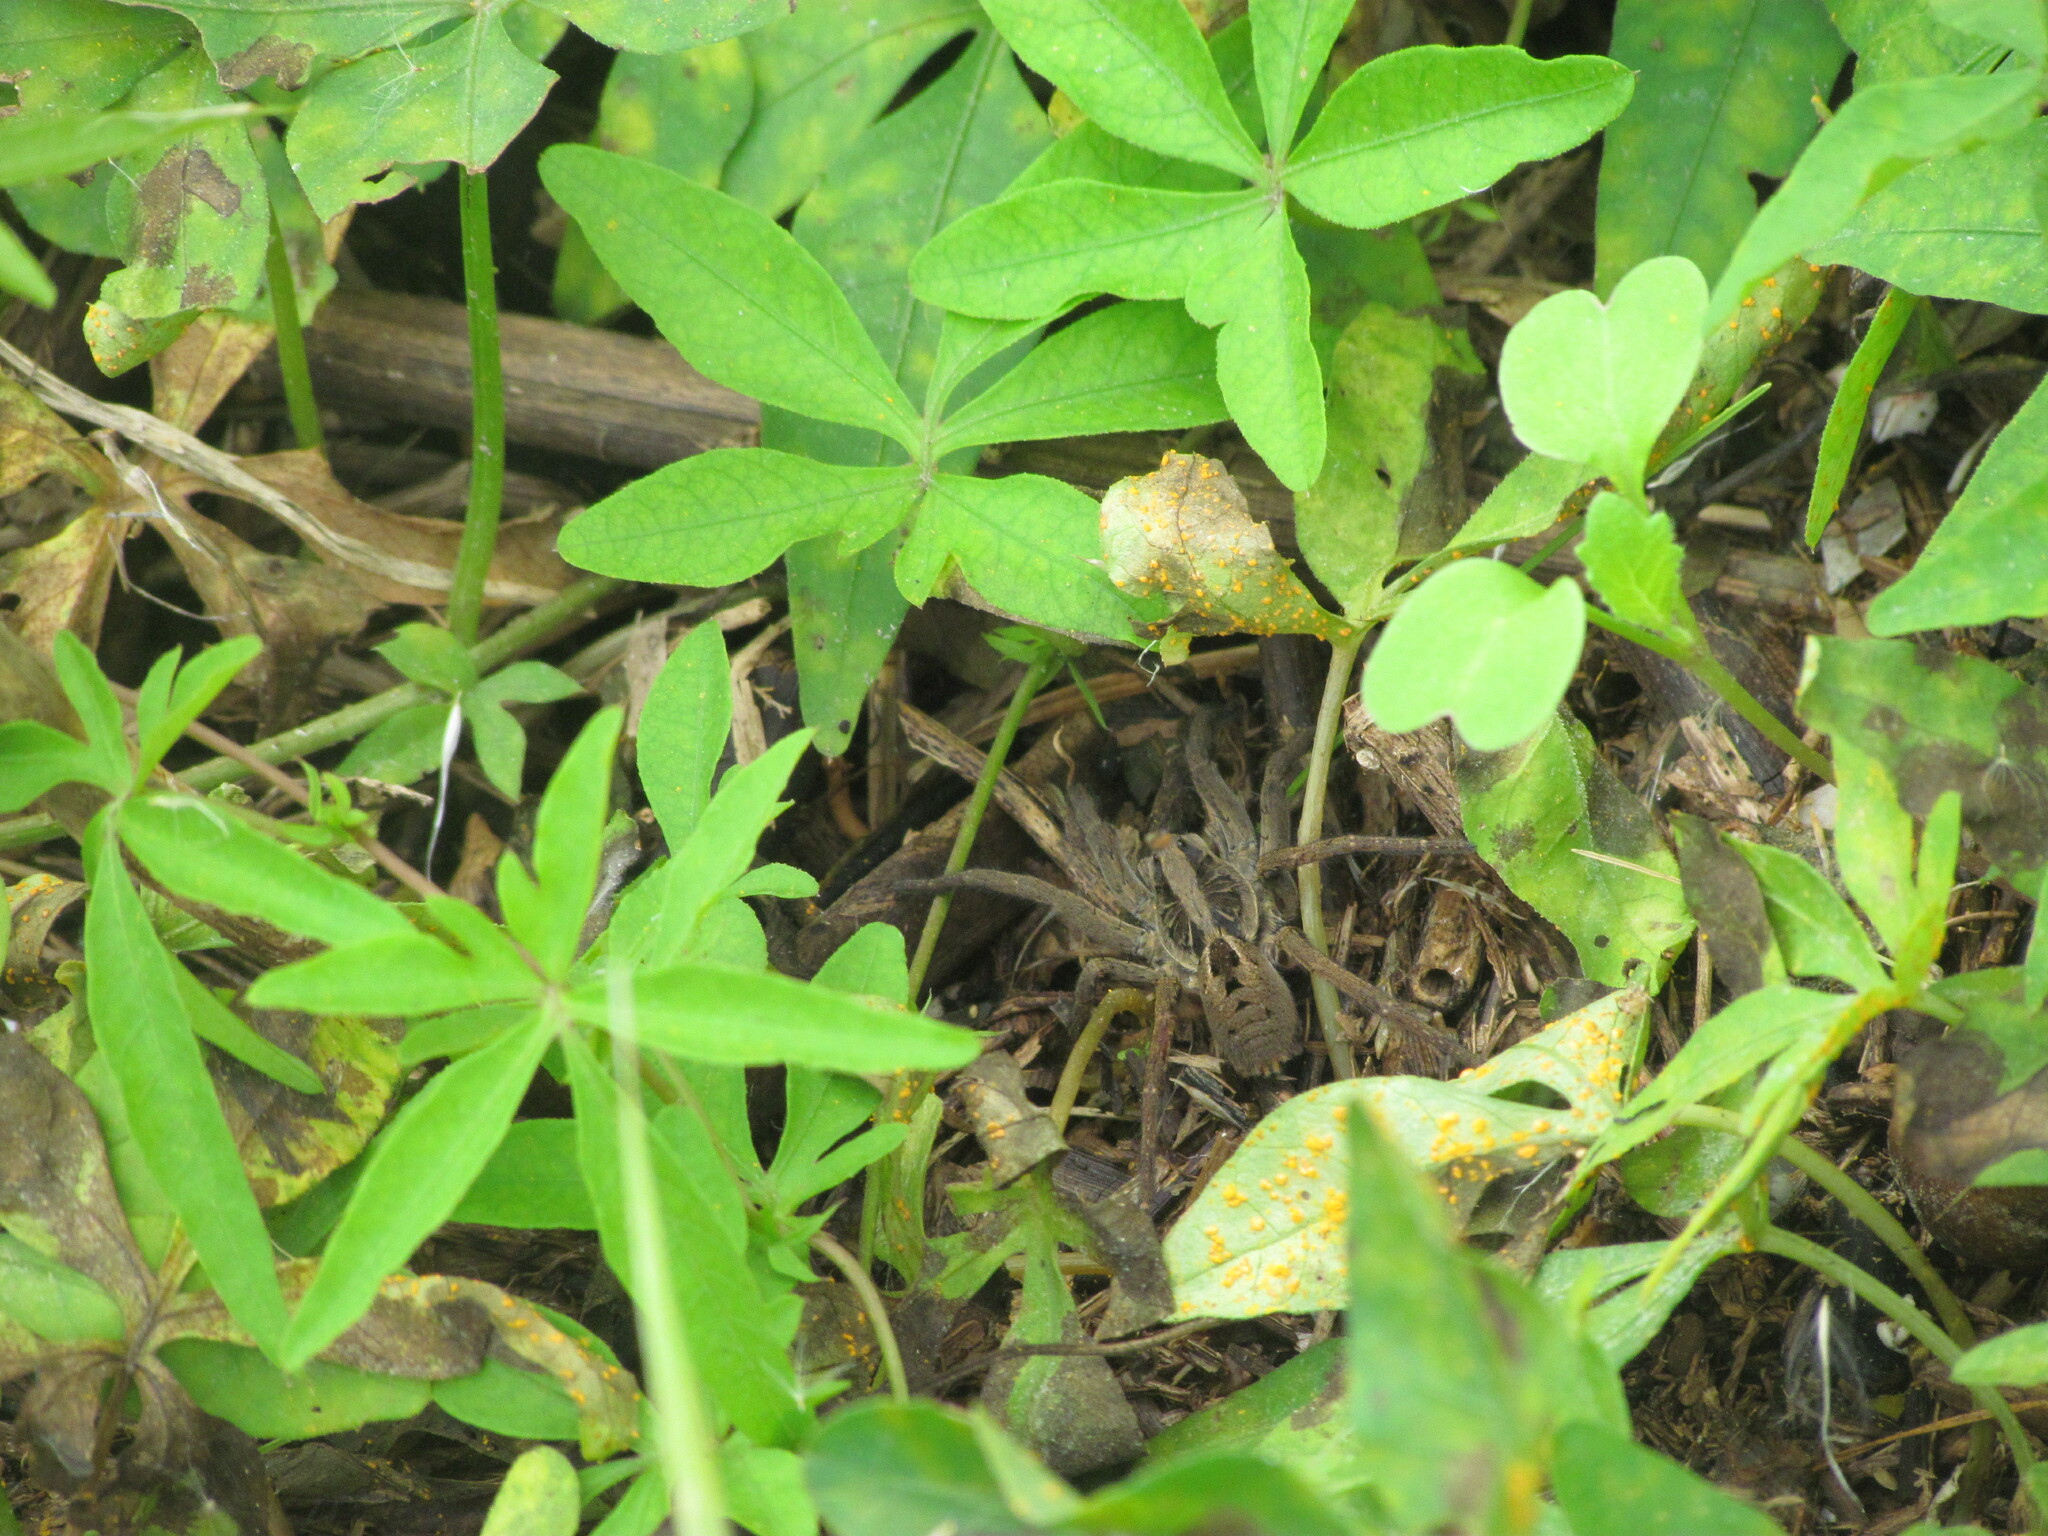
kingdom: Animalia
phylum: Arthropoda
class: Arachnida
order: Araneae
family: Lycosidae
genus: Lycosa
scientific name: Lycosa erythrognatha
